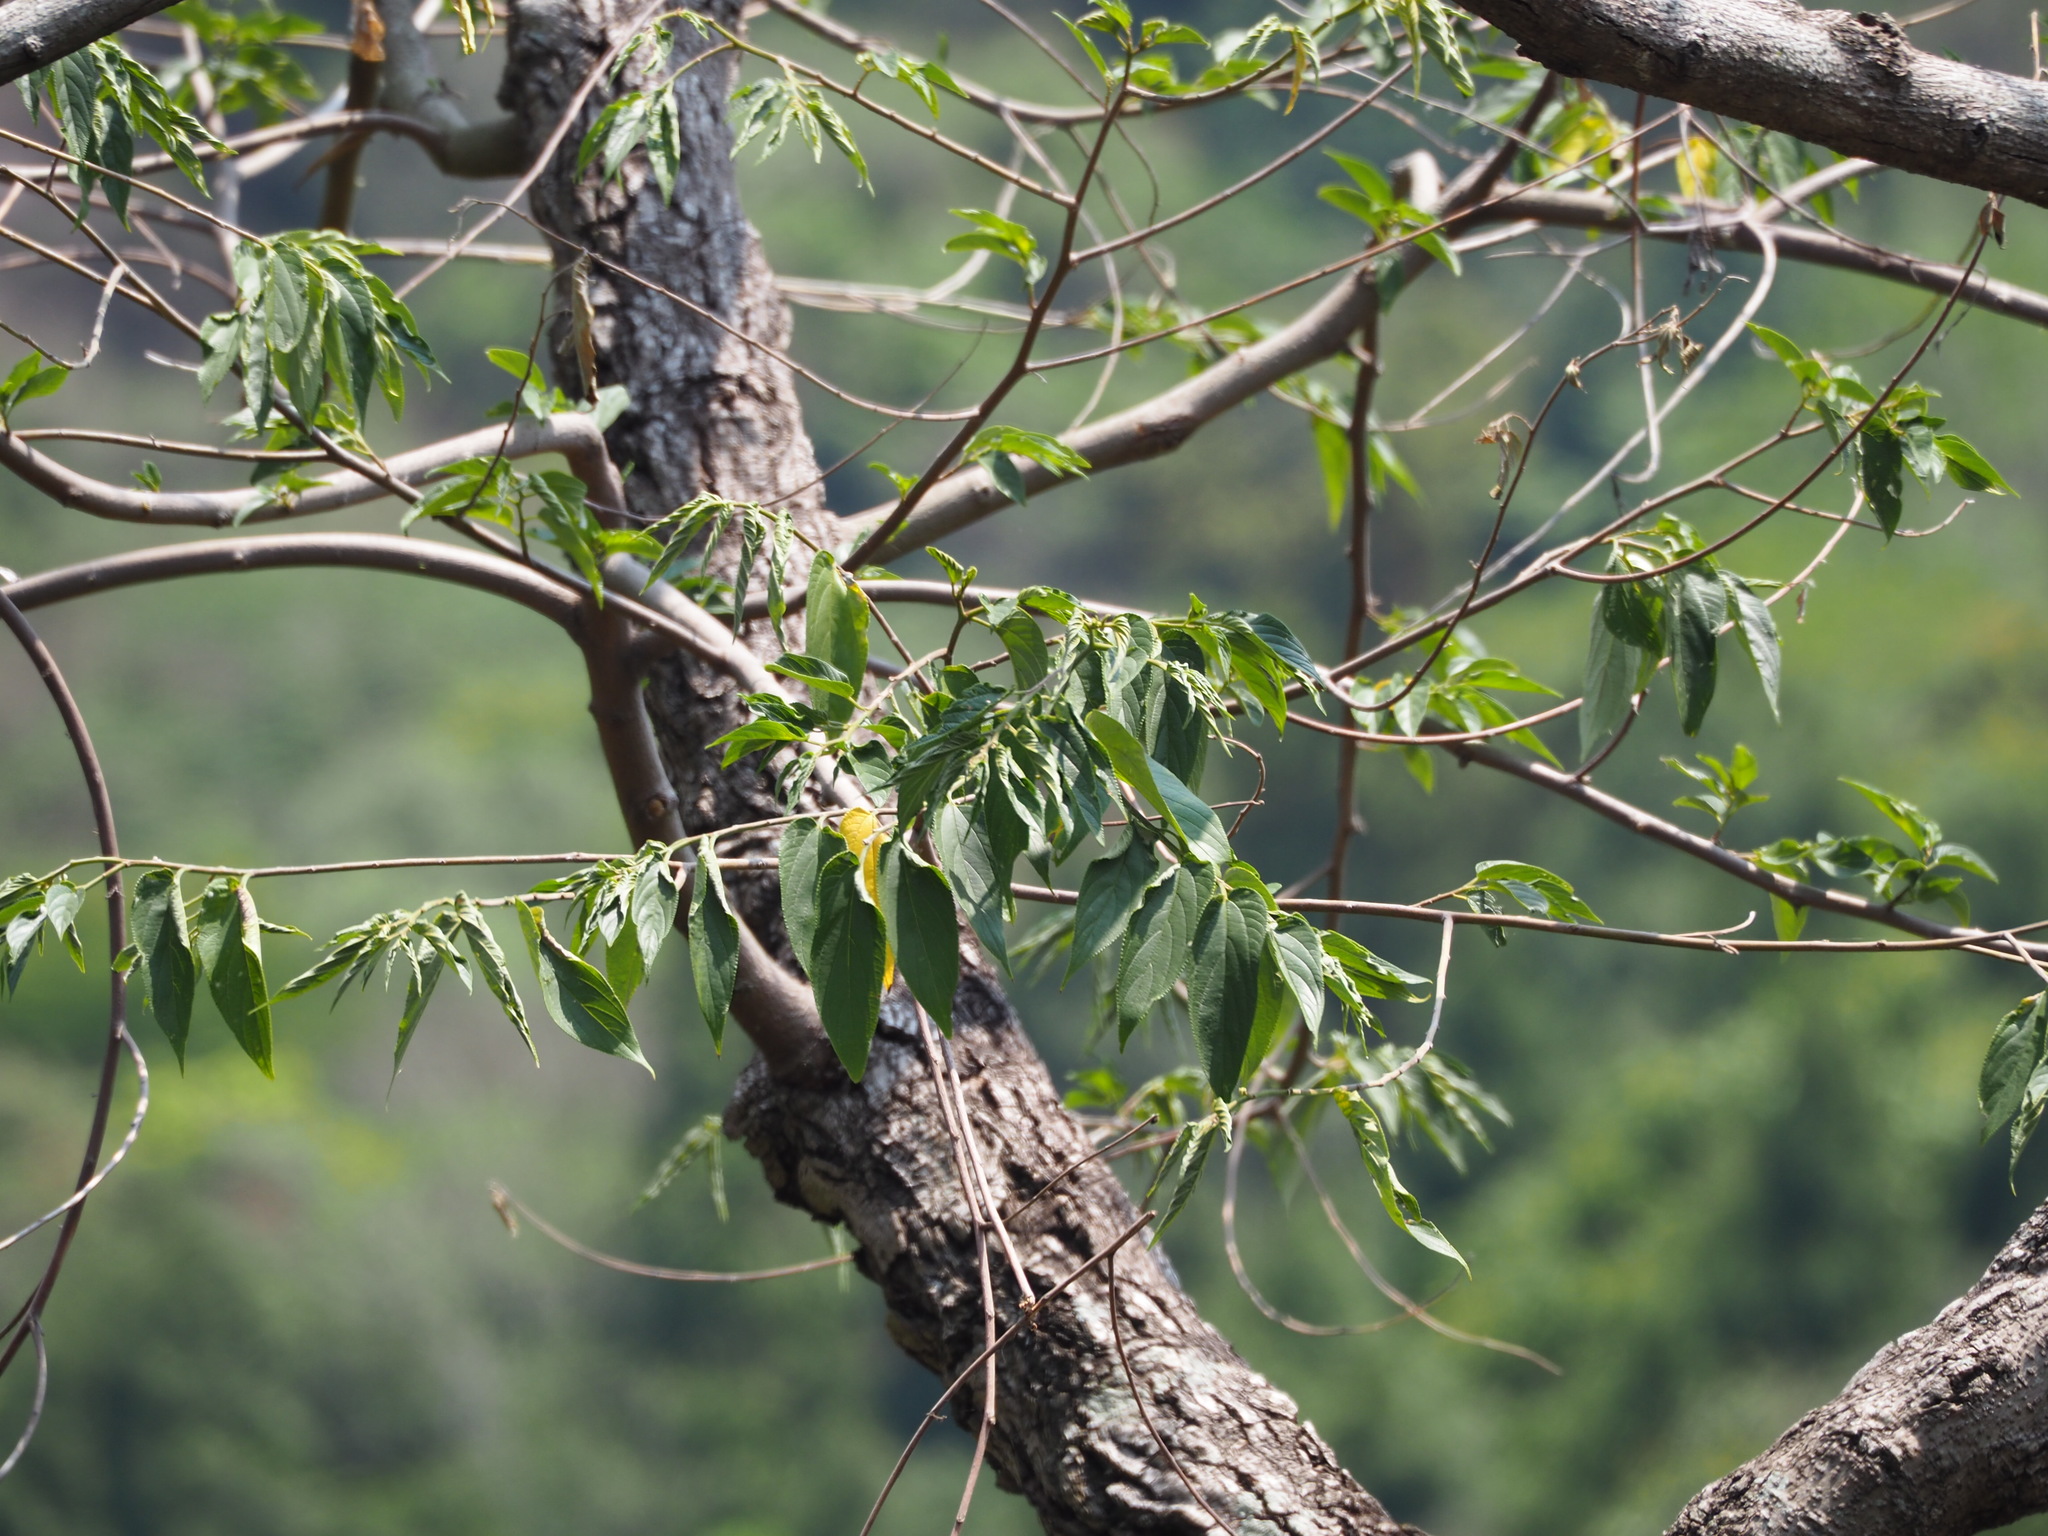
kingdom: Plantae
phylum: Tracheophyta
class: Magnoliopsida
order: Rosales
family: Cannabaceae
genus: Trema
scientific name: Trema orientale
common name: Indian charcoal tree
